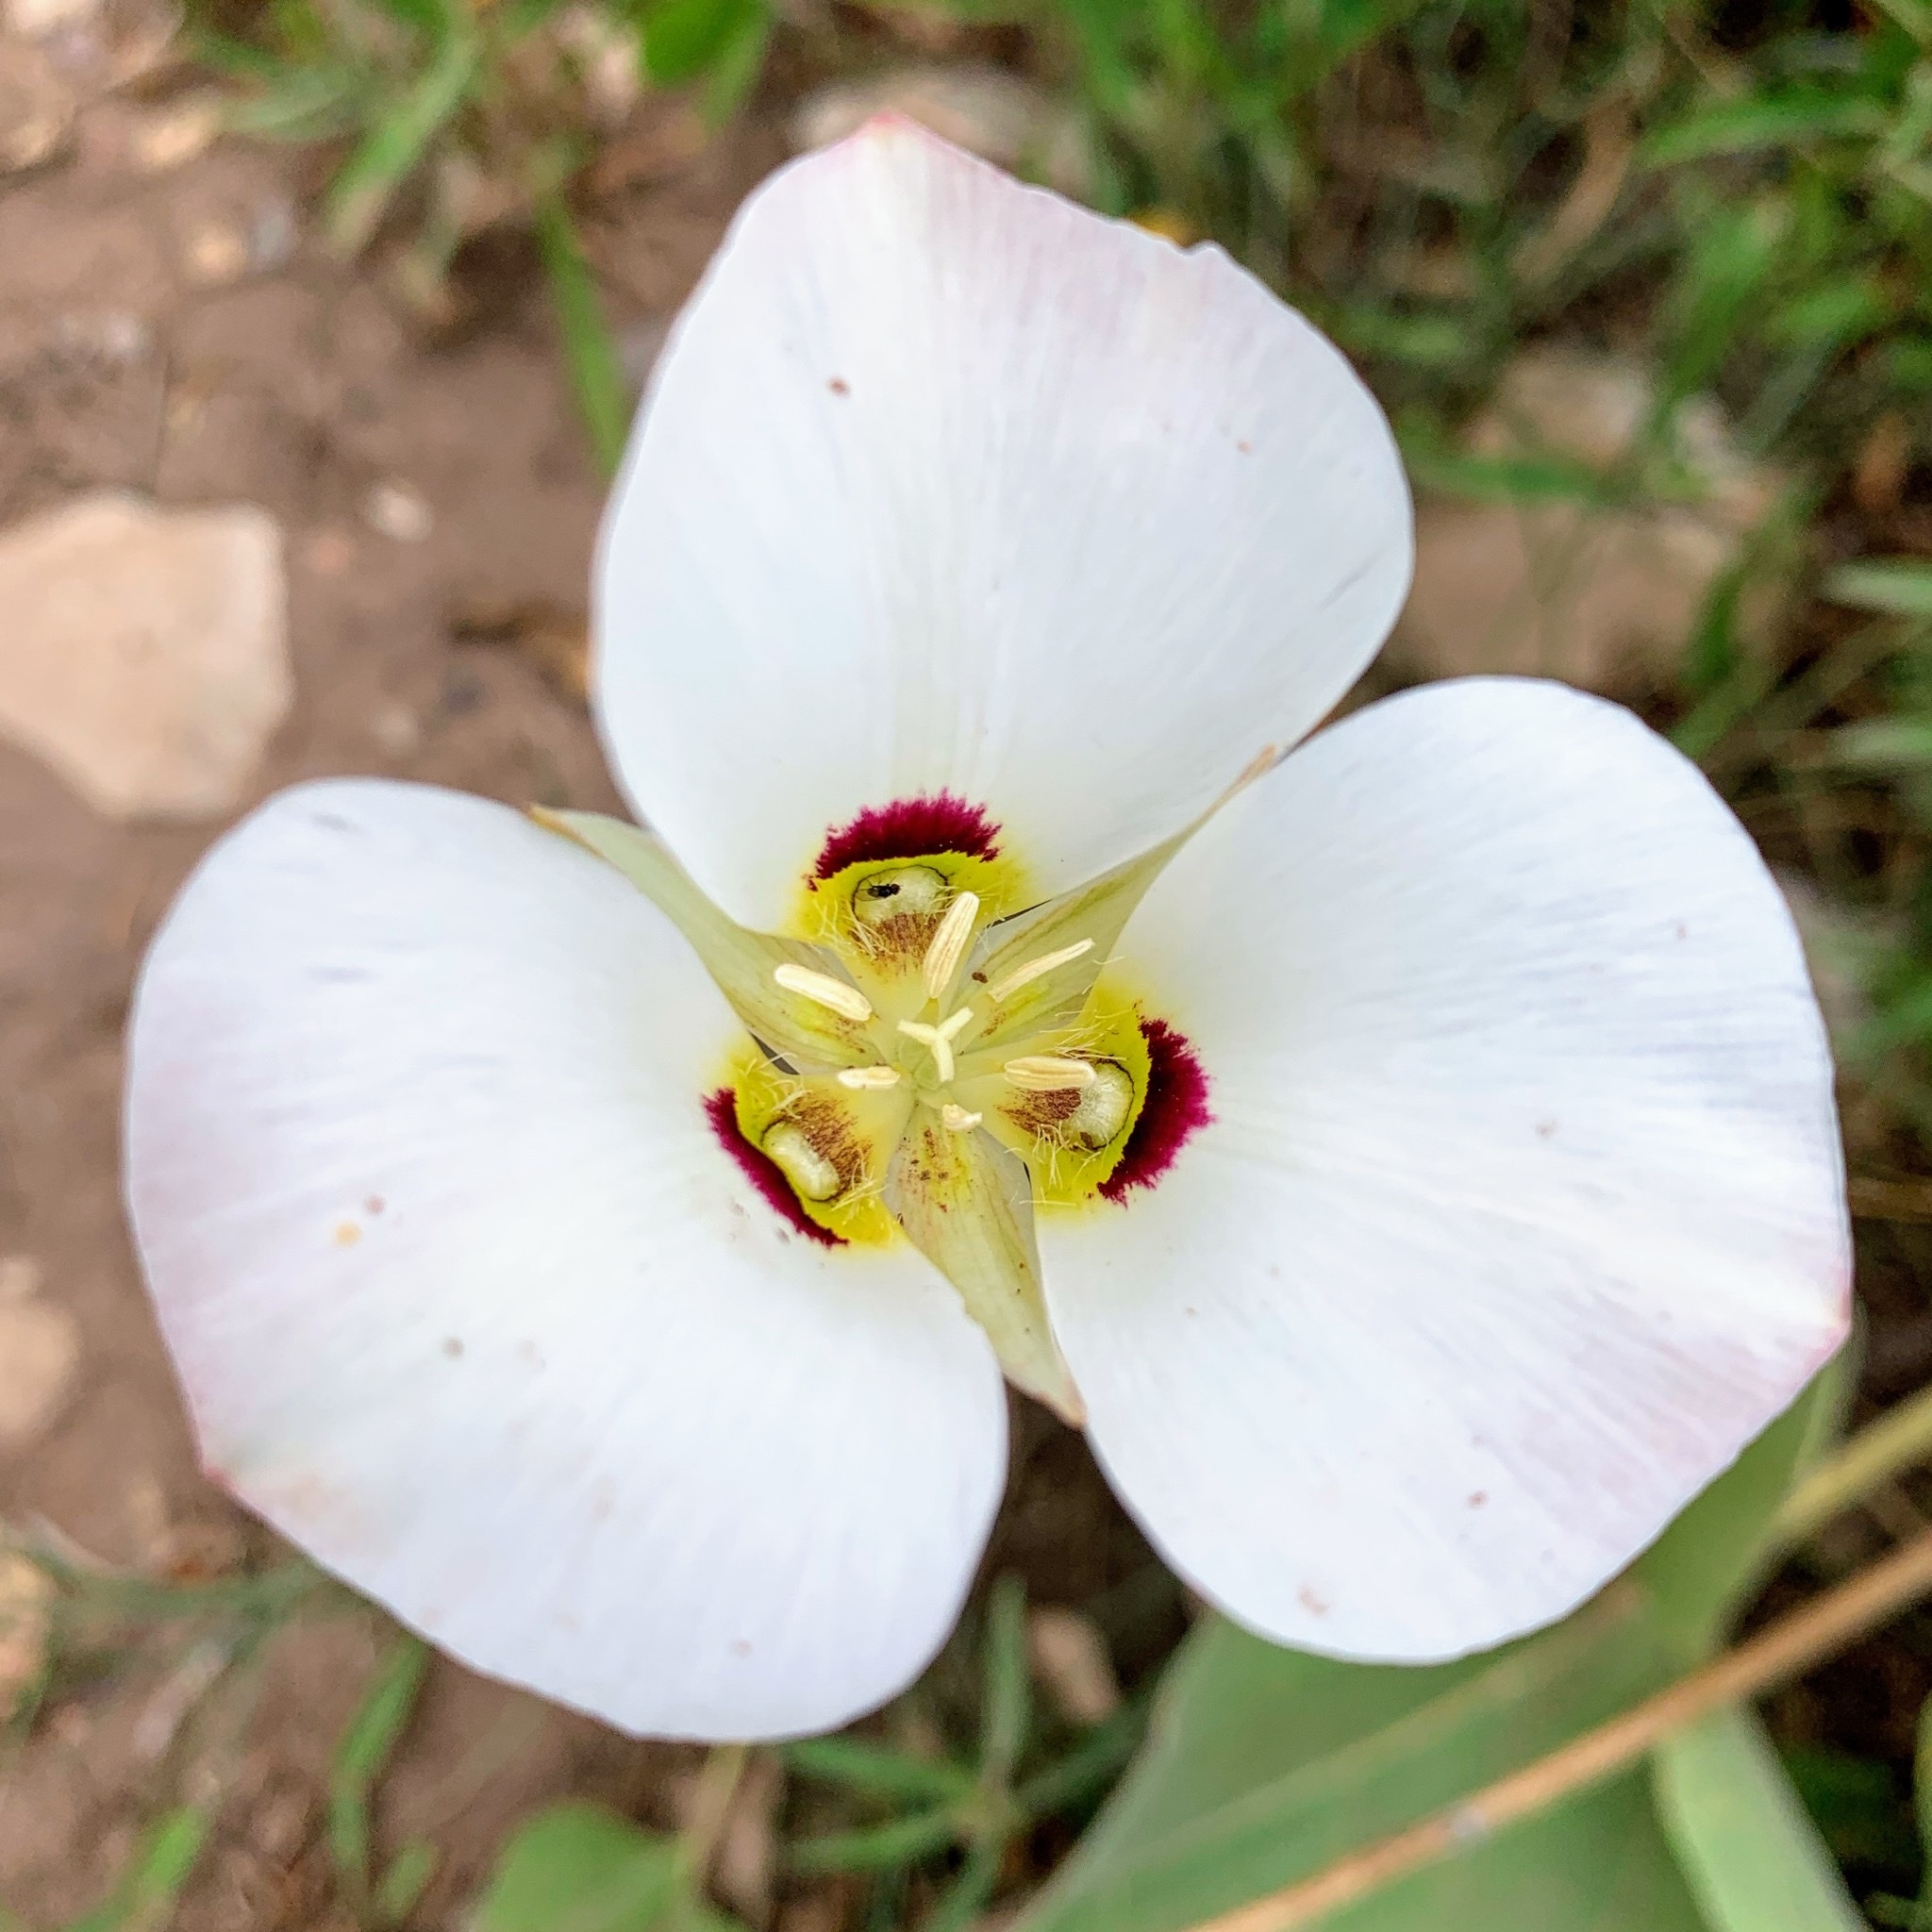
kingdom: Plantae
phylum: Tracheophyta
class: Liliopsida
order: Liliales
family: Liliaceae
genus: Calochortus
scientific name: Calochortus nuttallii
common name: Sego-lily
